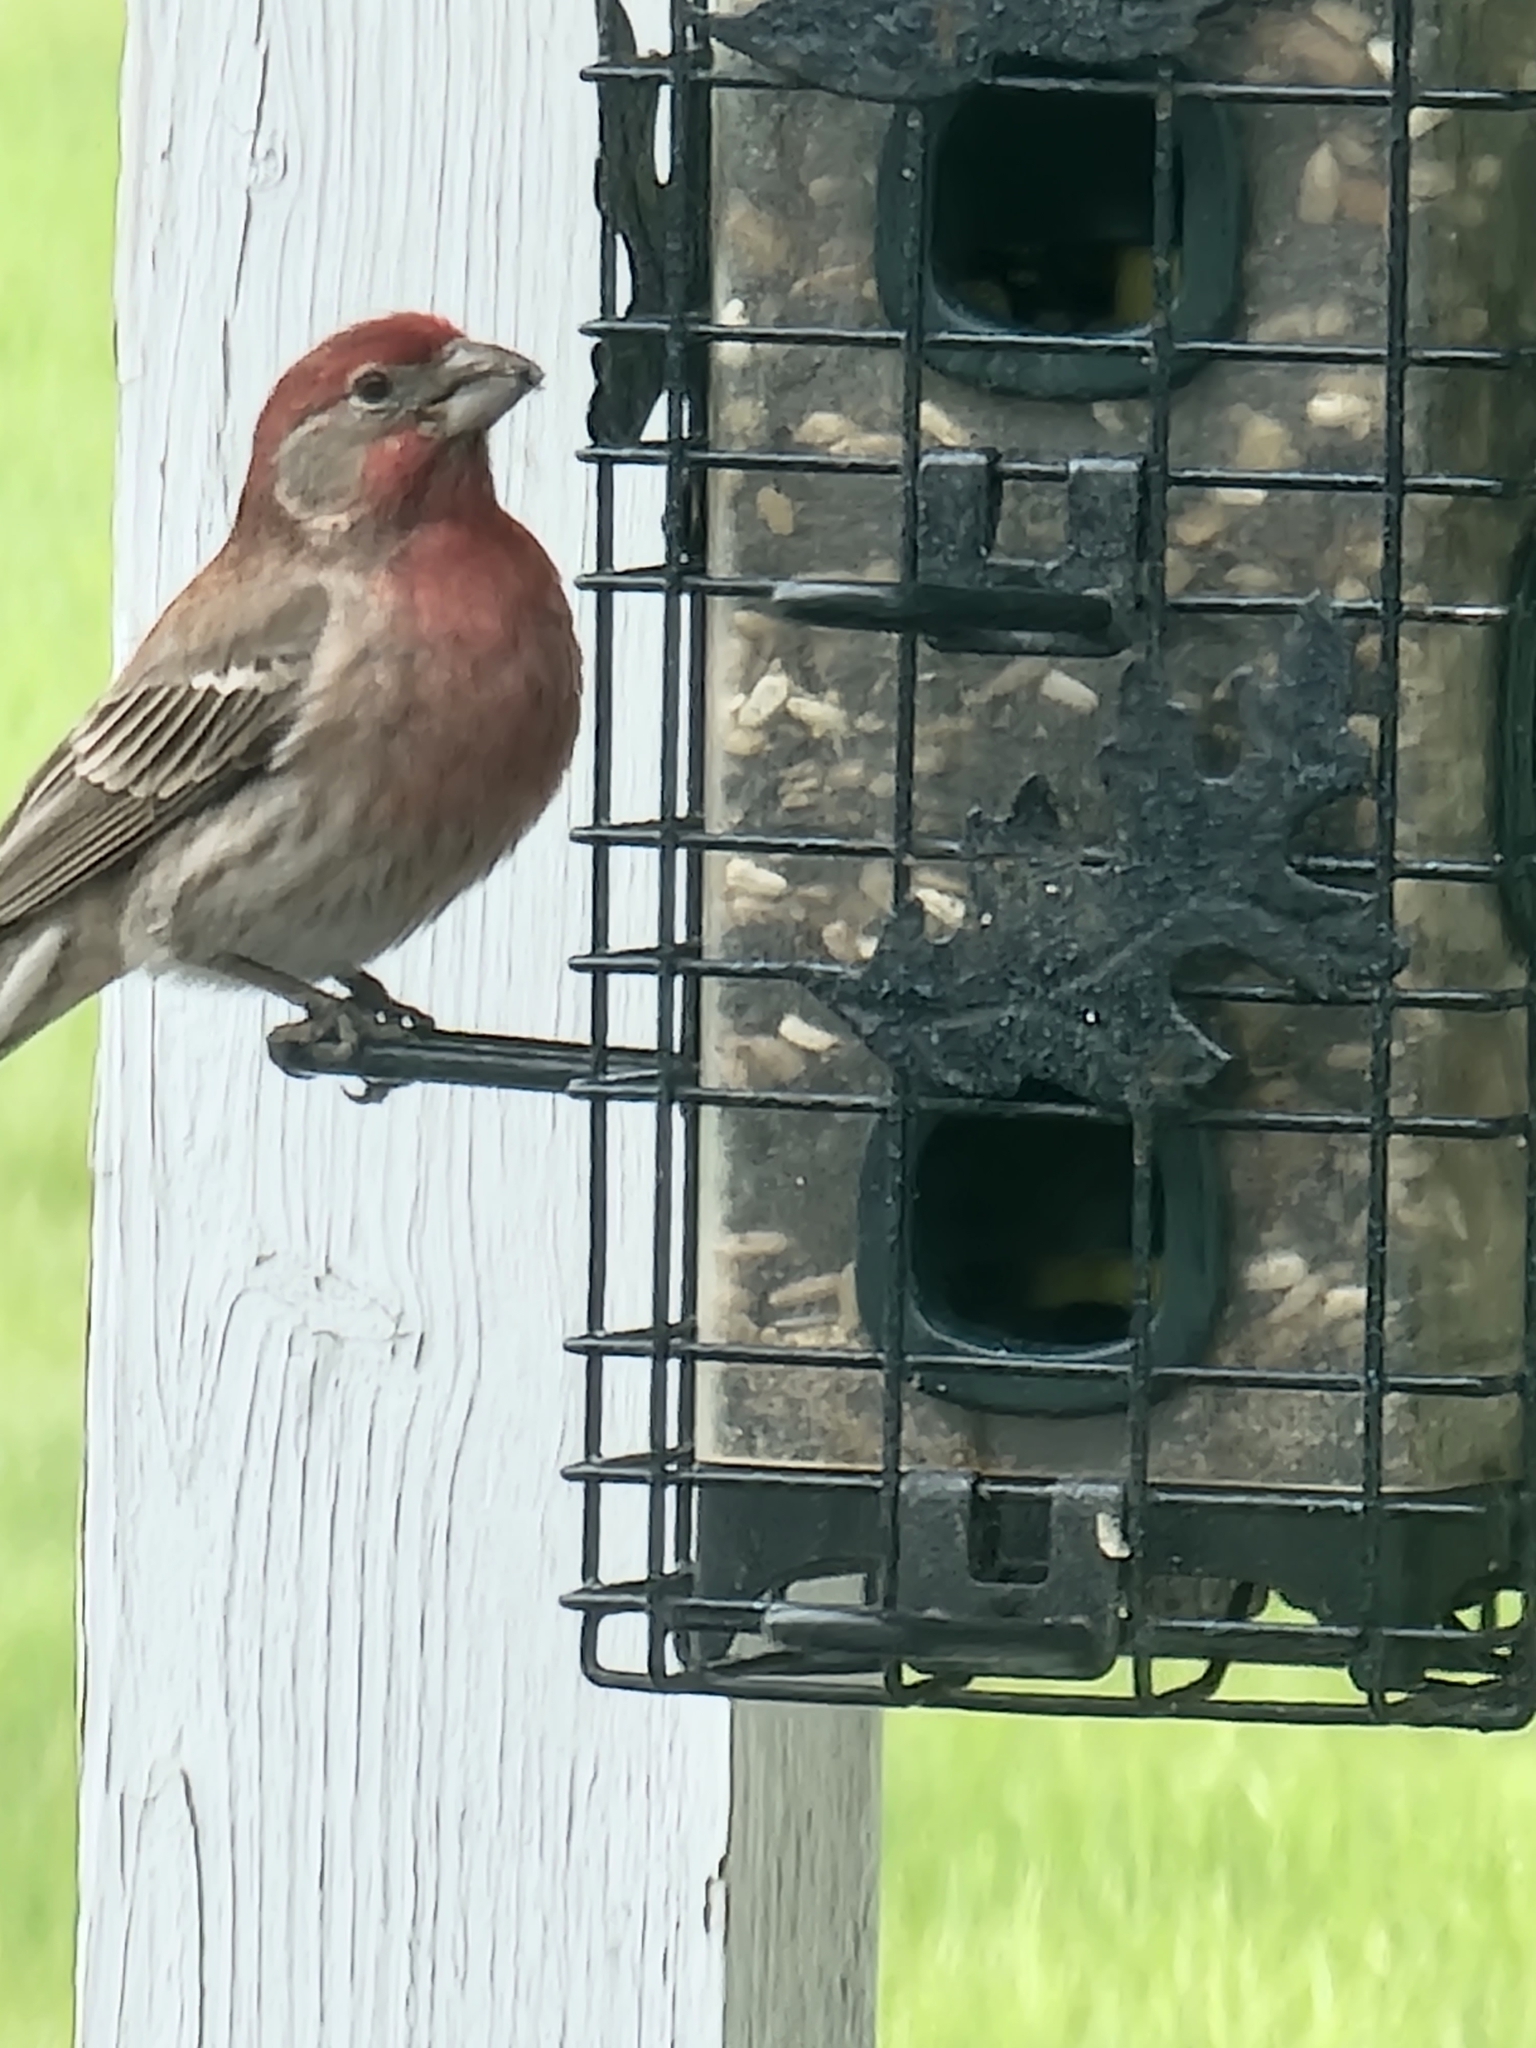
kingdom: Animalia
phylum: Chordata
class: Aves
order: Passeriformes
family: Fringillidae
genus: Haemorhous
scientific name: Haemorhous mexicanus
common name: House finch
